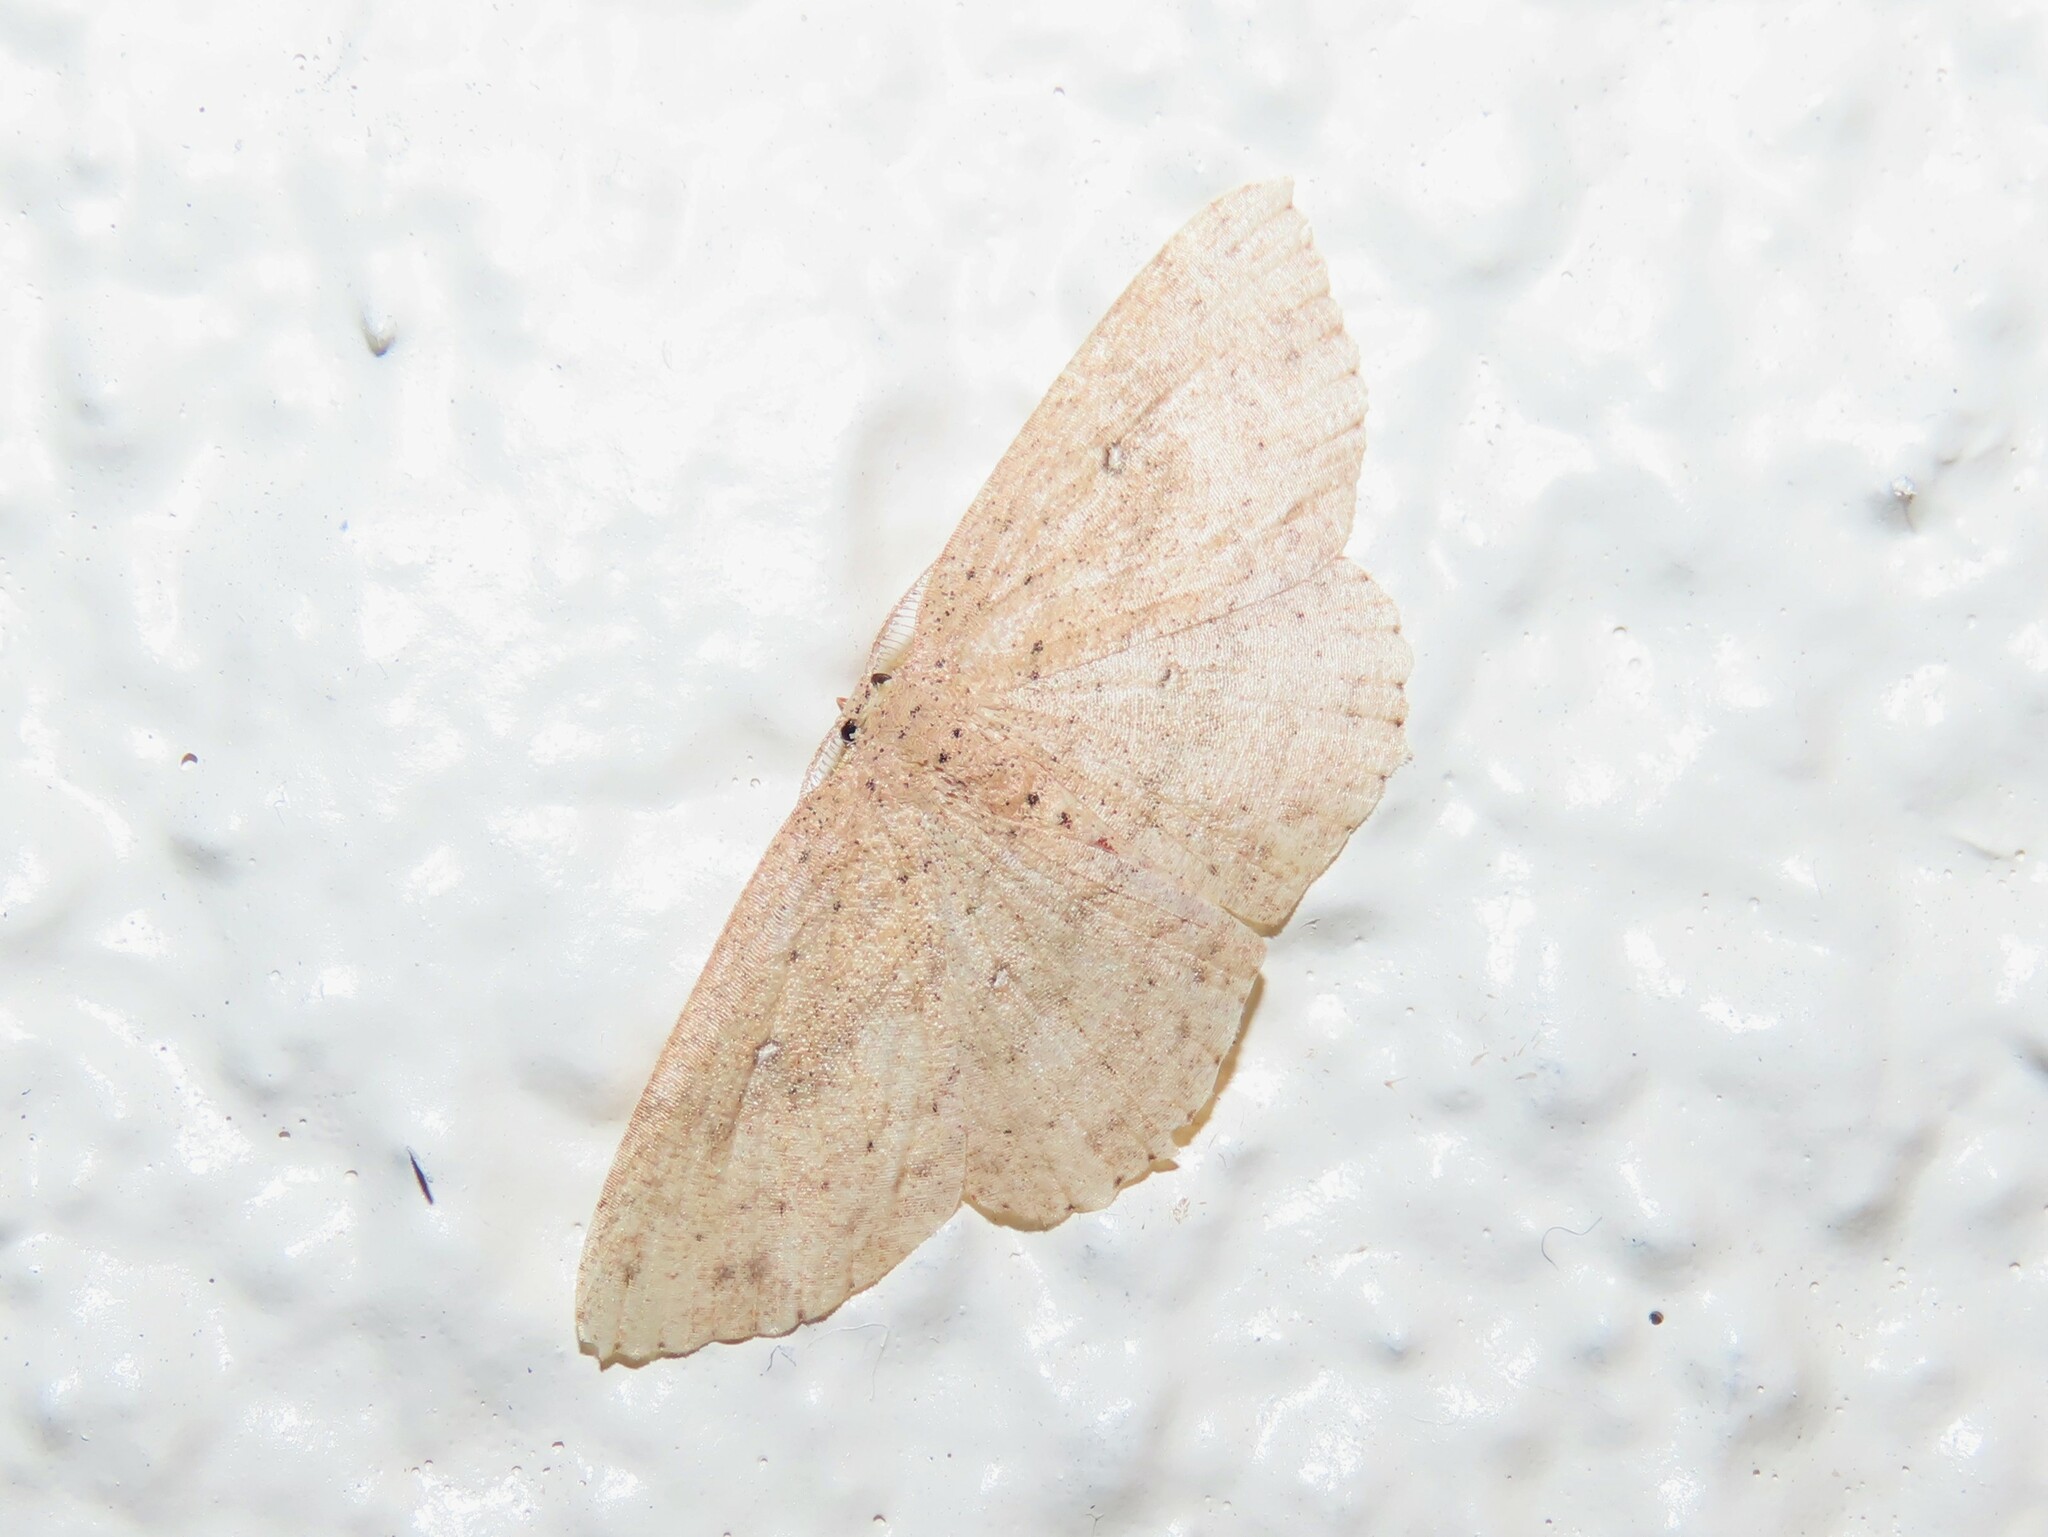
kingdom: Animalia
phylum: Arthropoda
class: Insecta
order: Lepidoptera
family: Geometridae
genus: Cyclophora
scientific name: Cyclophora myrtaria
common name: Waxmyrtle wave moth
